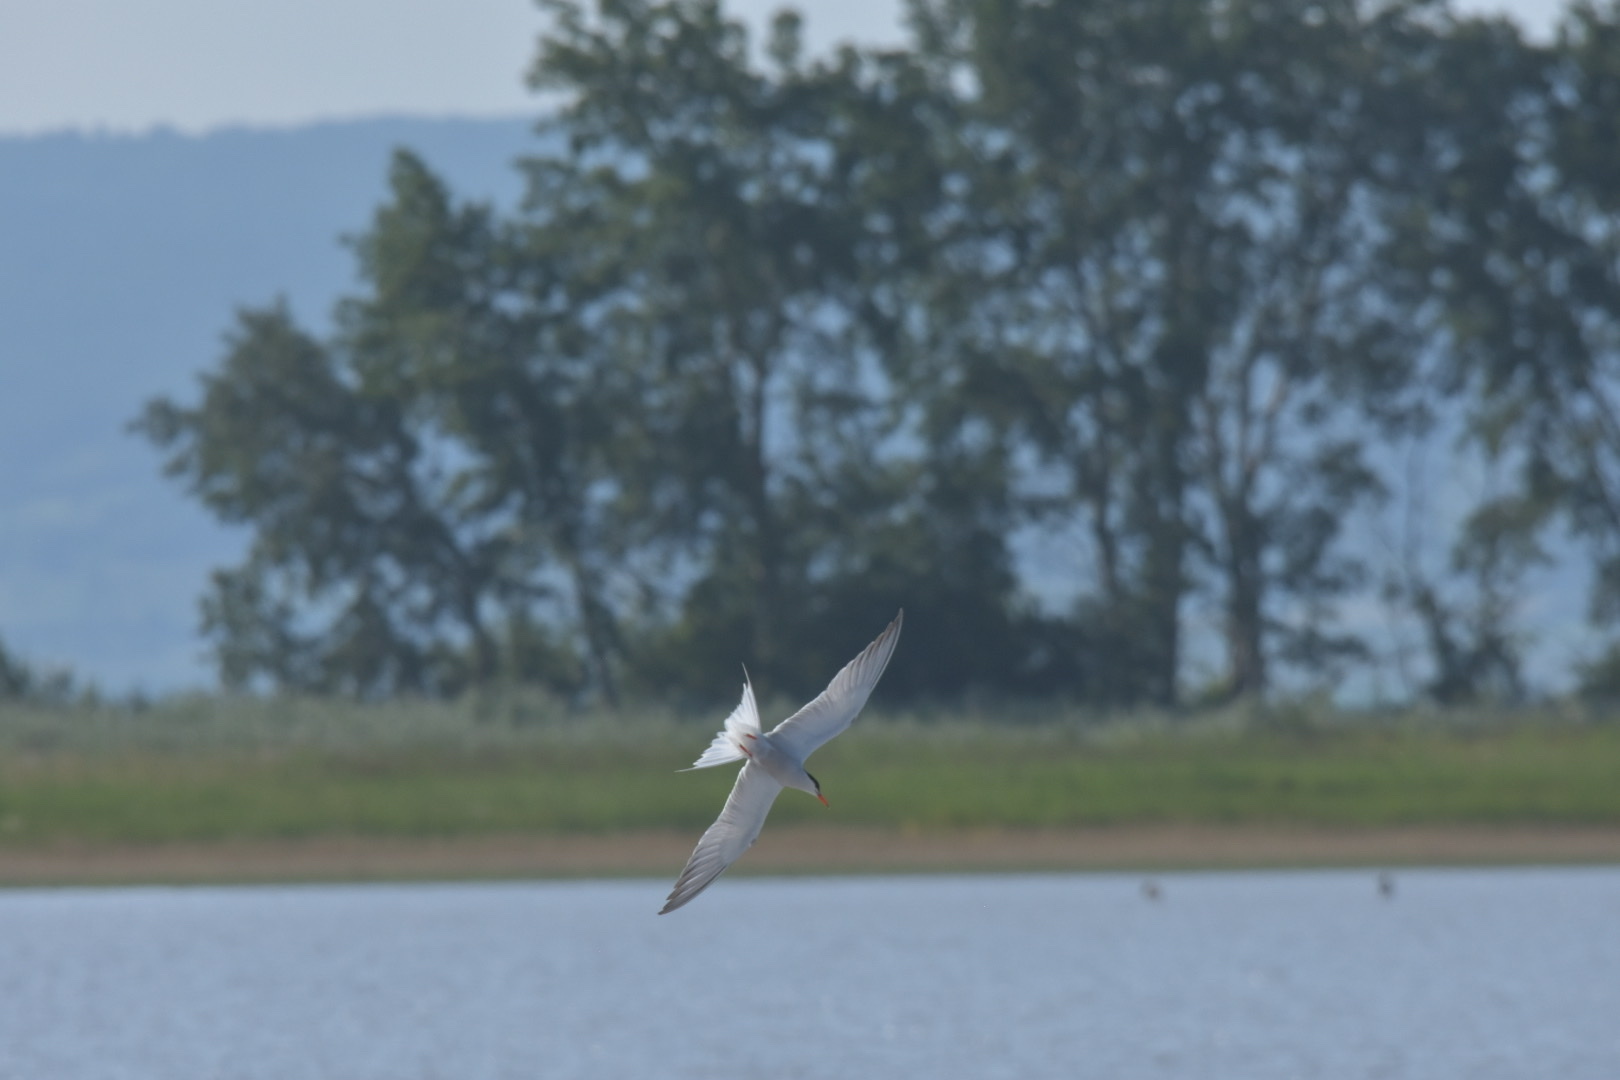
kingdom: Animalia
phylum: Chordata
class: Aves
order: Charadriiformes
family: Laridae
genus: Sterna
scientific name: Sterna hirundo
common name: Common tern
